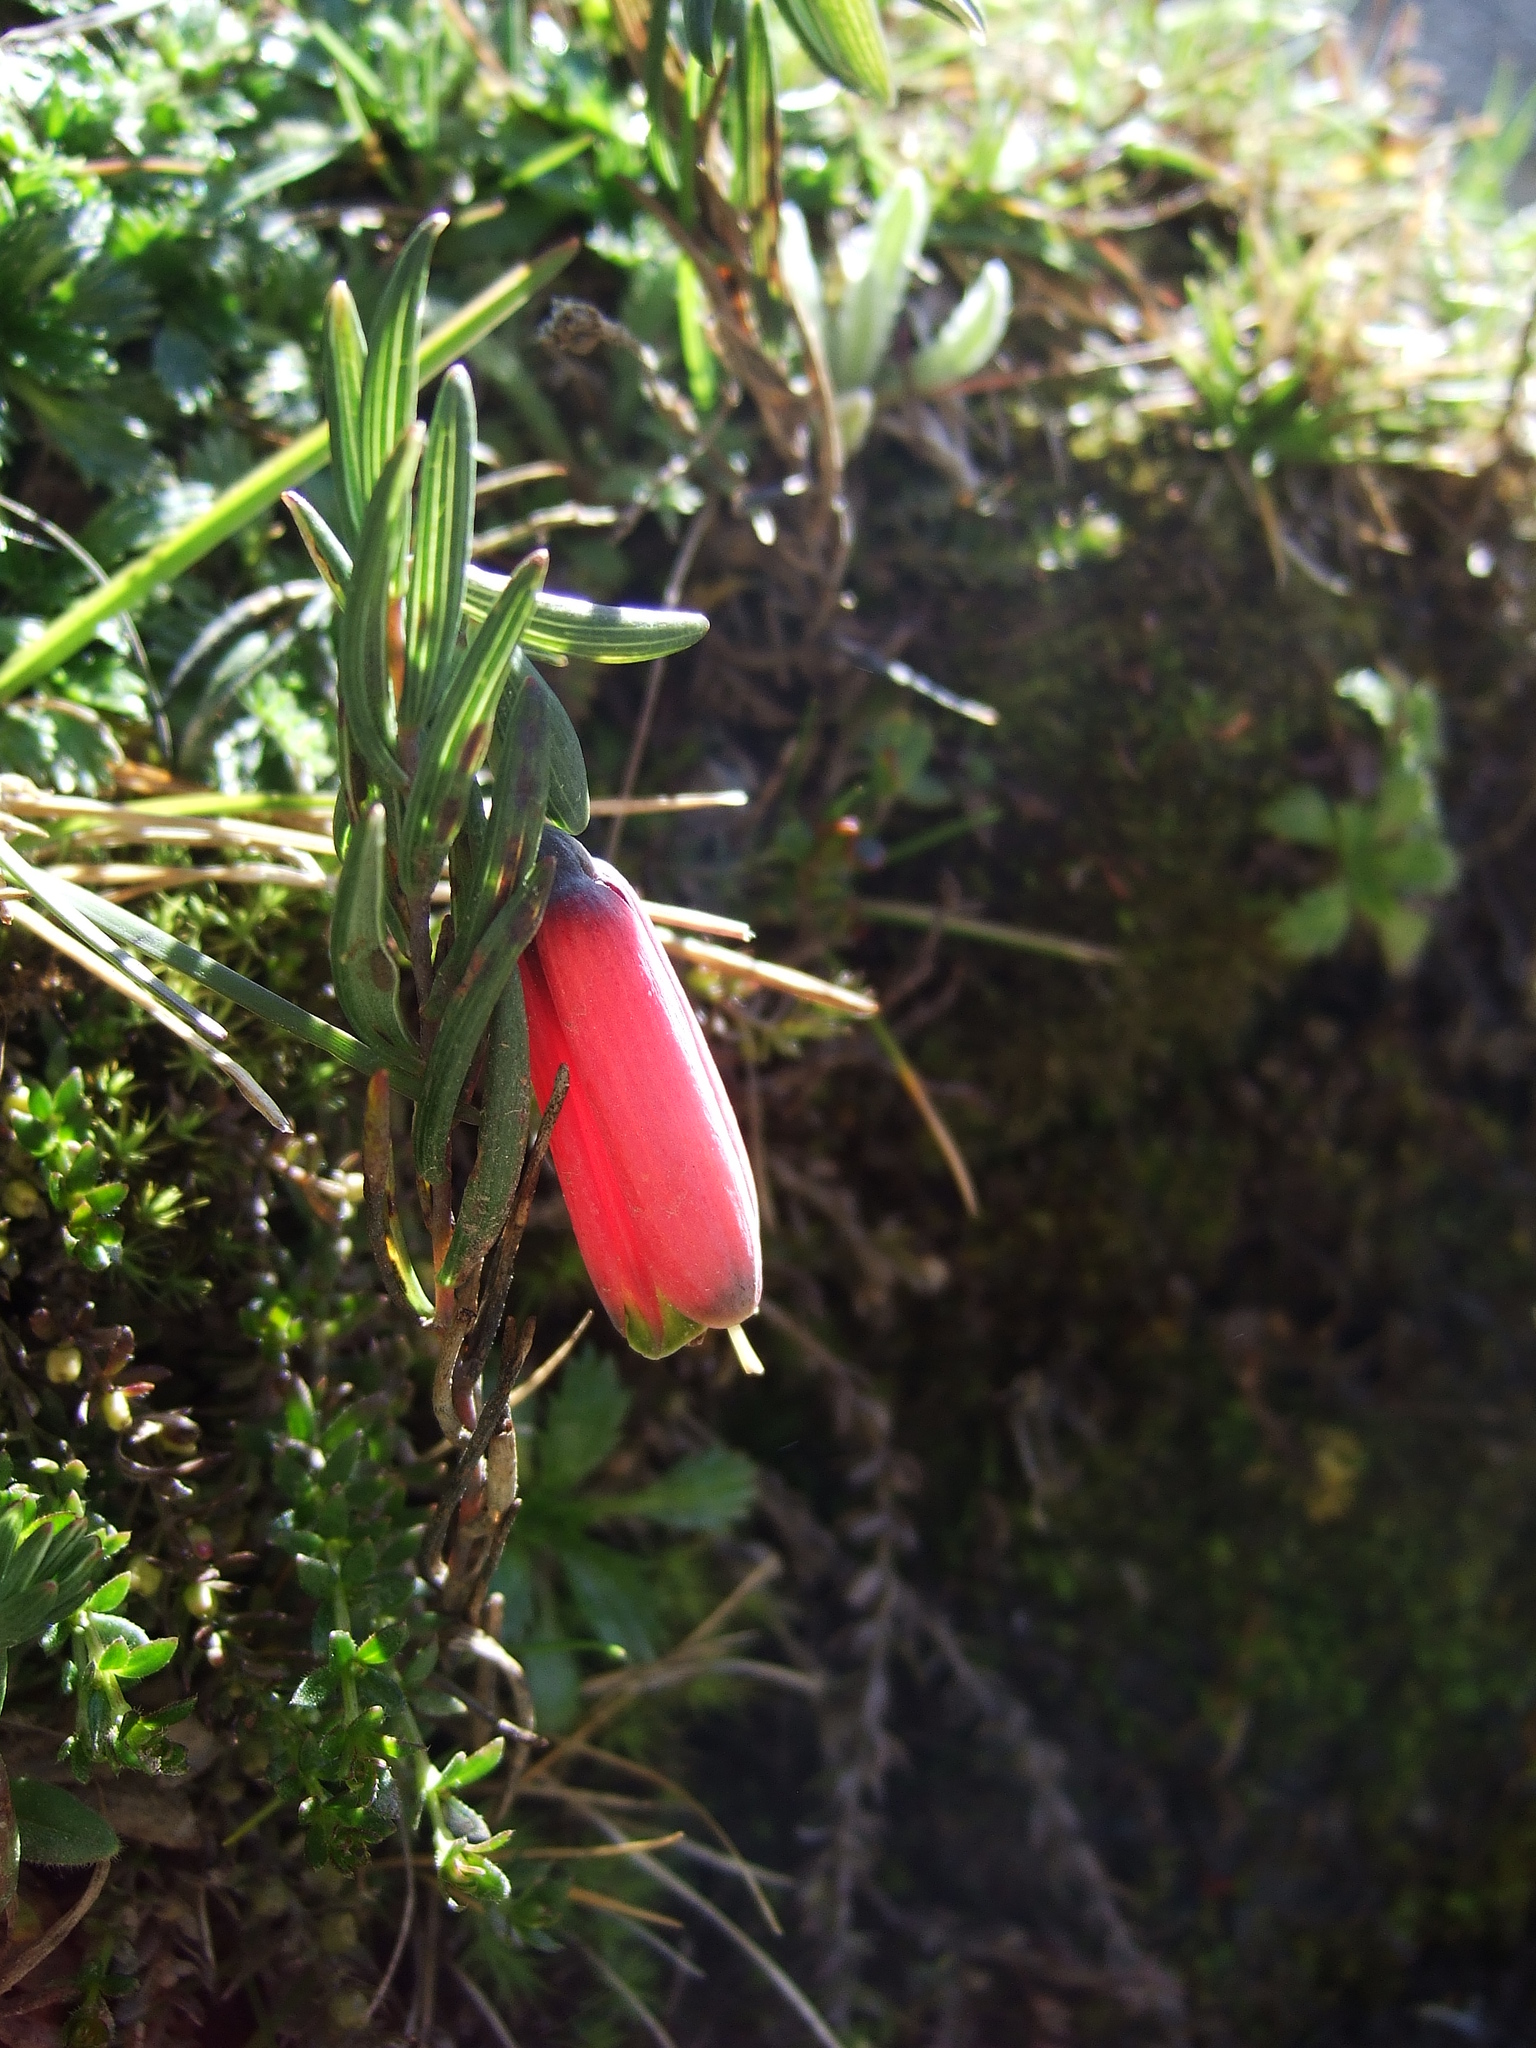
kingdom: Plantae
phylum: Tracheophyta
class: Liliopsida
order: Liliales
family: Alstroemeriaceae
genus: Bomarea
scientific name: Bomarea dulcis
